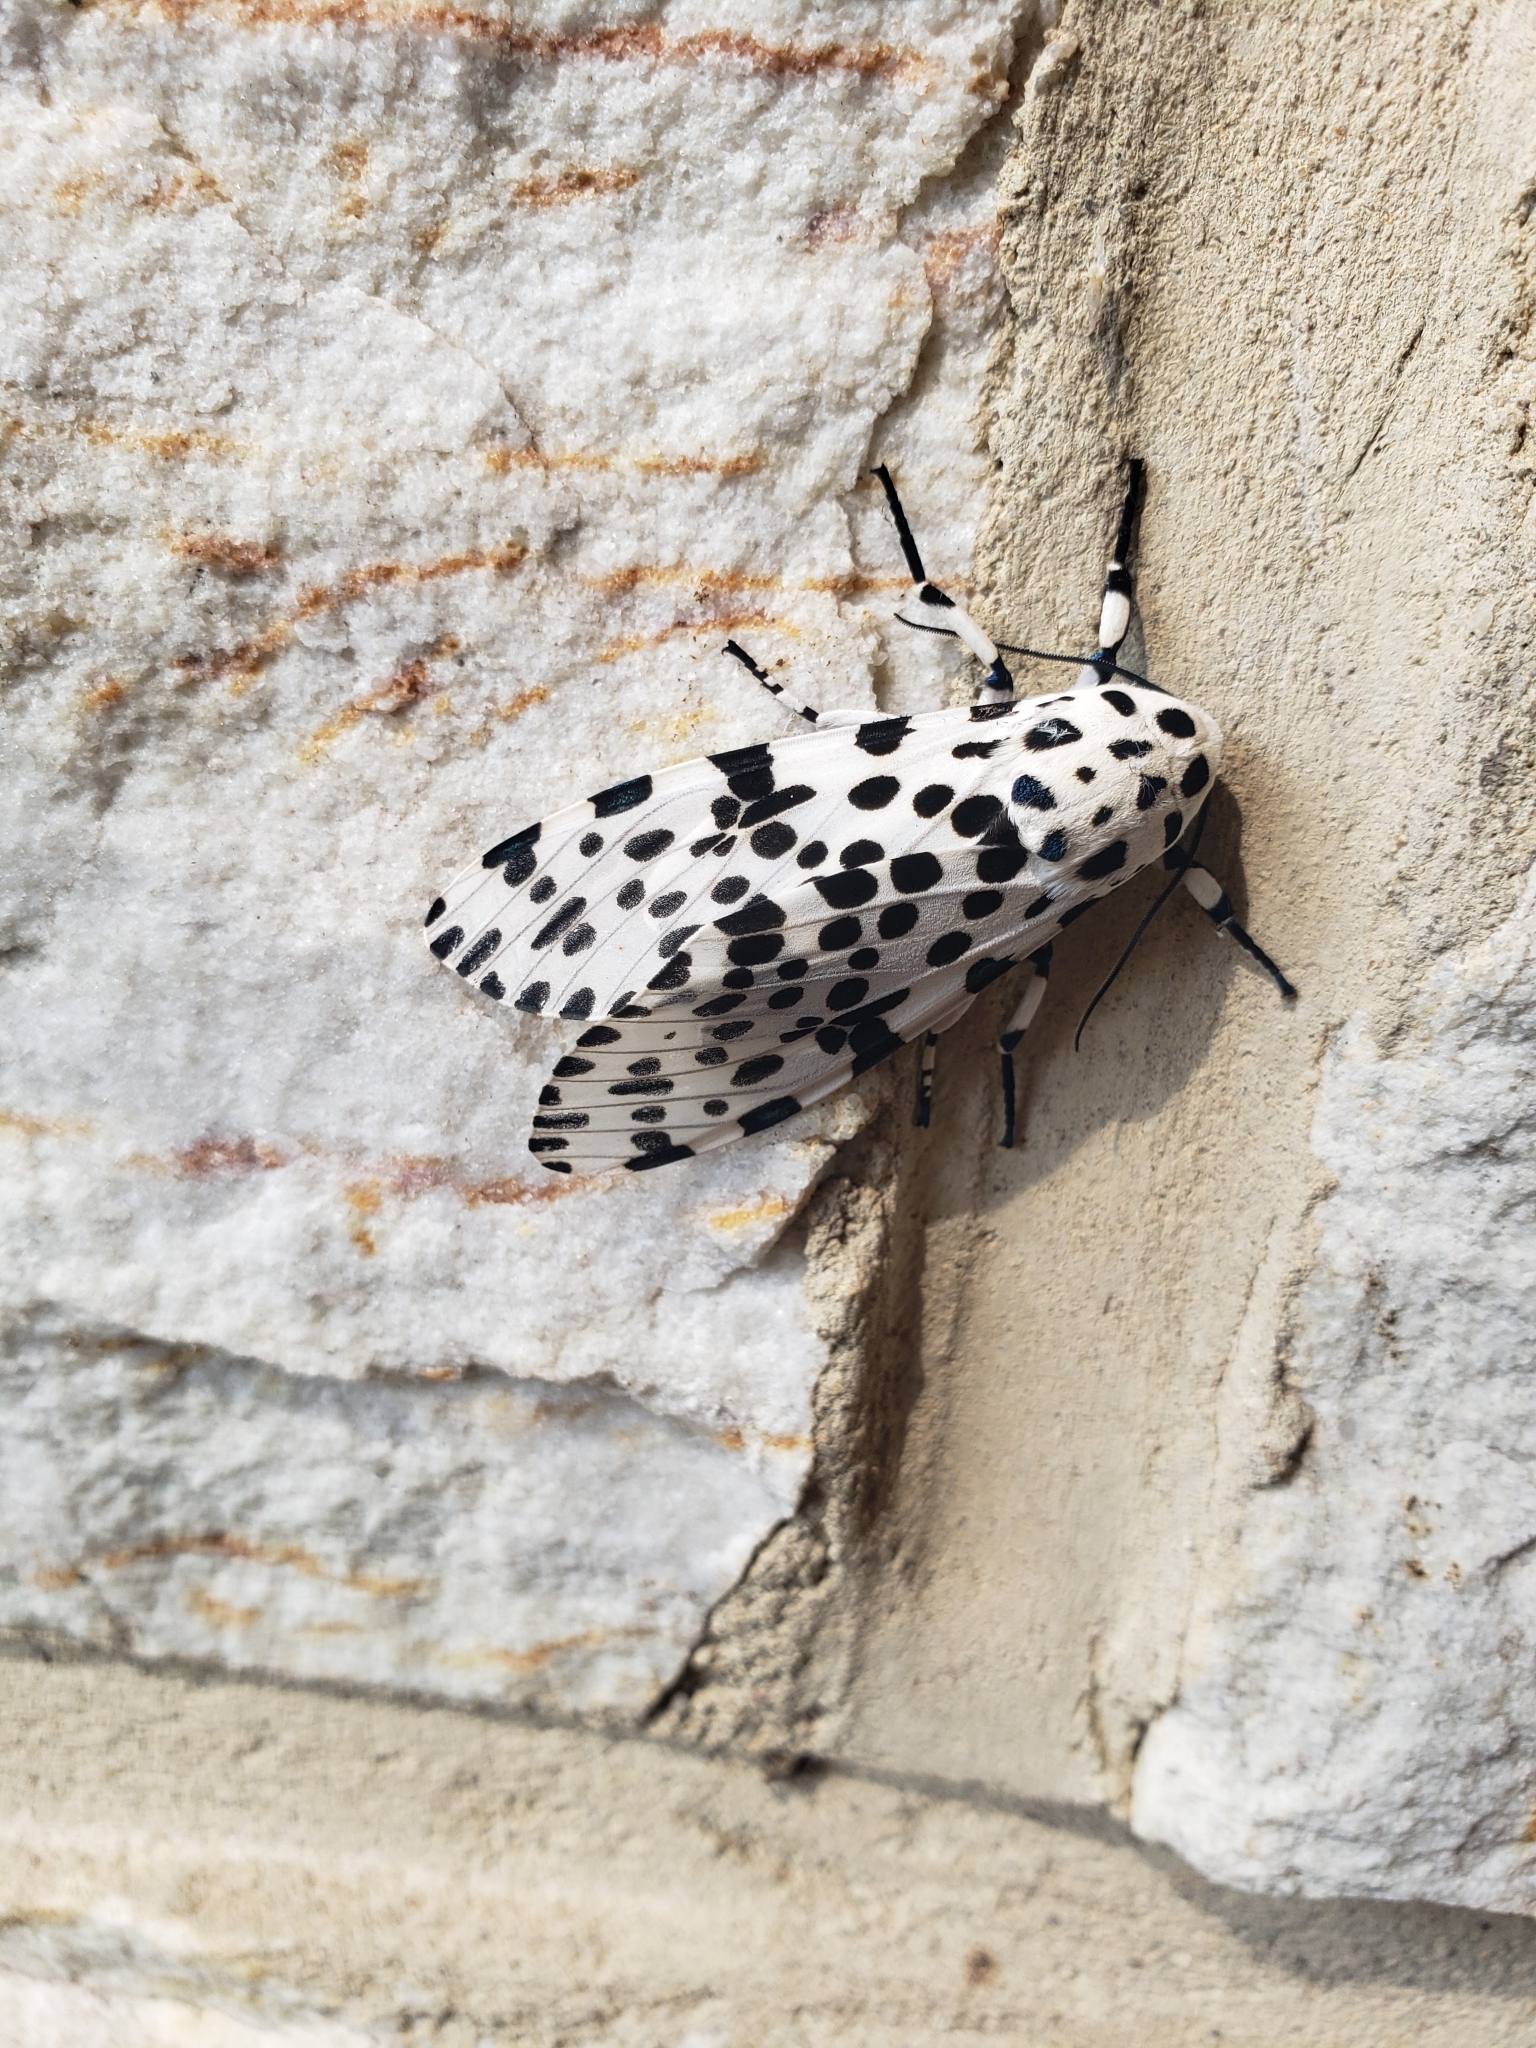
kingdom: Animalia
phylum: Arthropoda
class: Insecta
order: Lepidoptera
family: Erebidae
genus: Hypercompe
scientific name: Hypercompe scribonia
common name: Giant leopard moth
